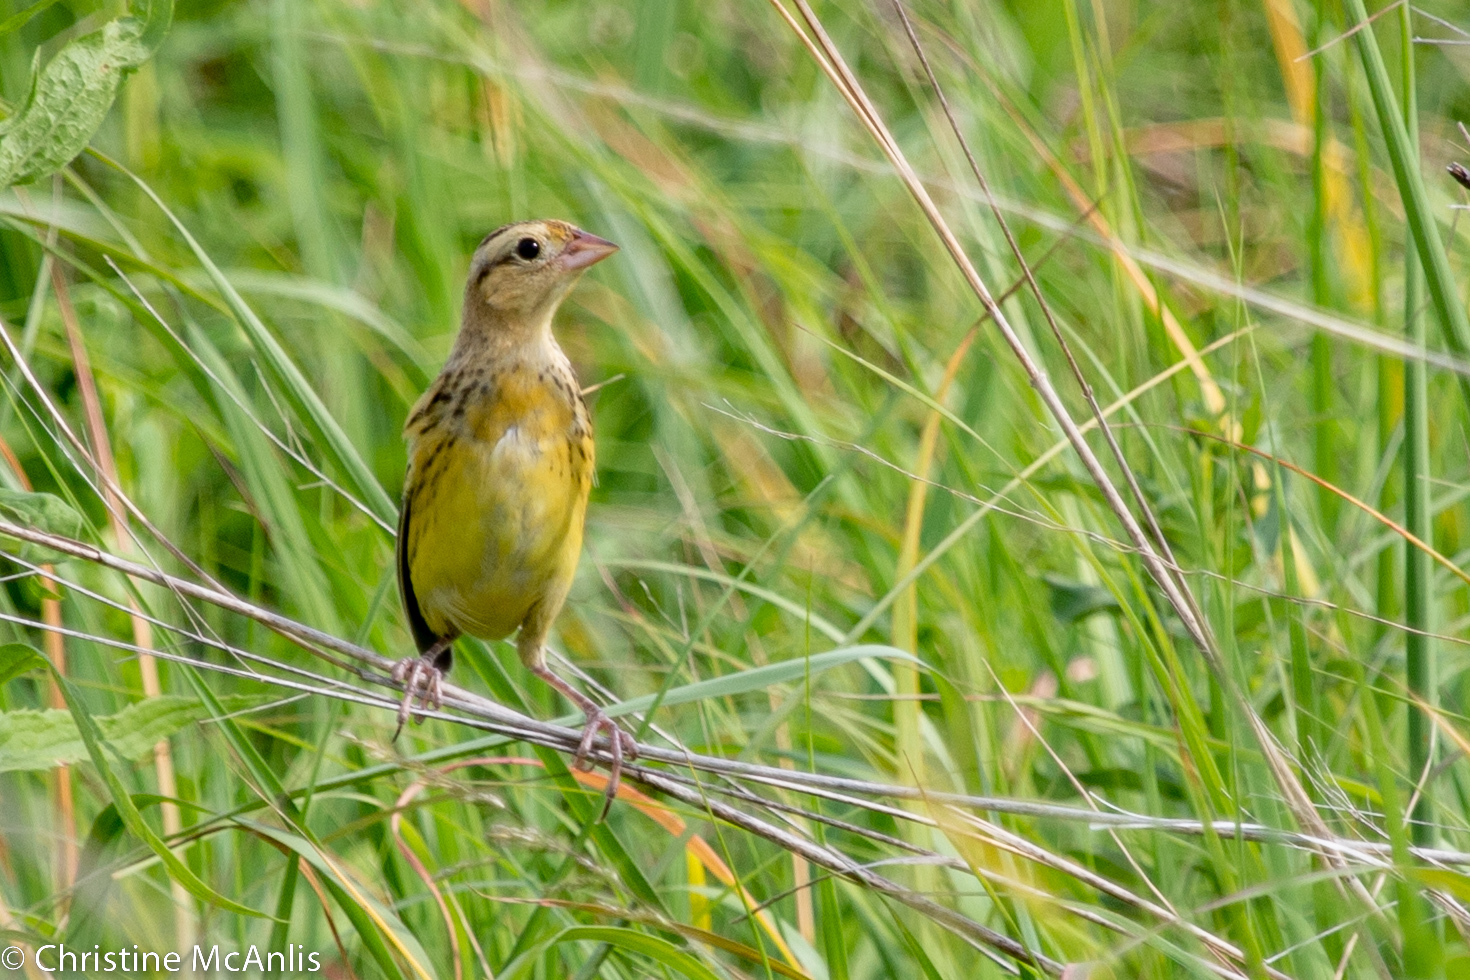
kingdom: Animalia
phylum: Chordata
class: Aves
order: Passeriformes
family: Icteridae
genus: Dolichonyx
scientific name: Dolichonyx oryzivorus
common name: Bobolink
